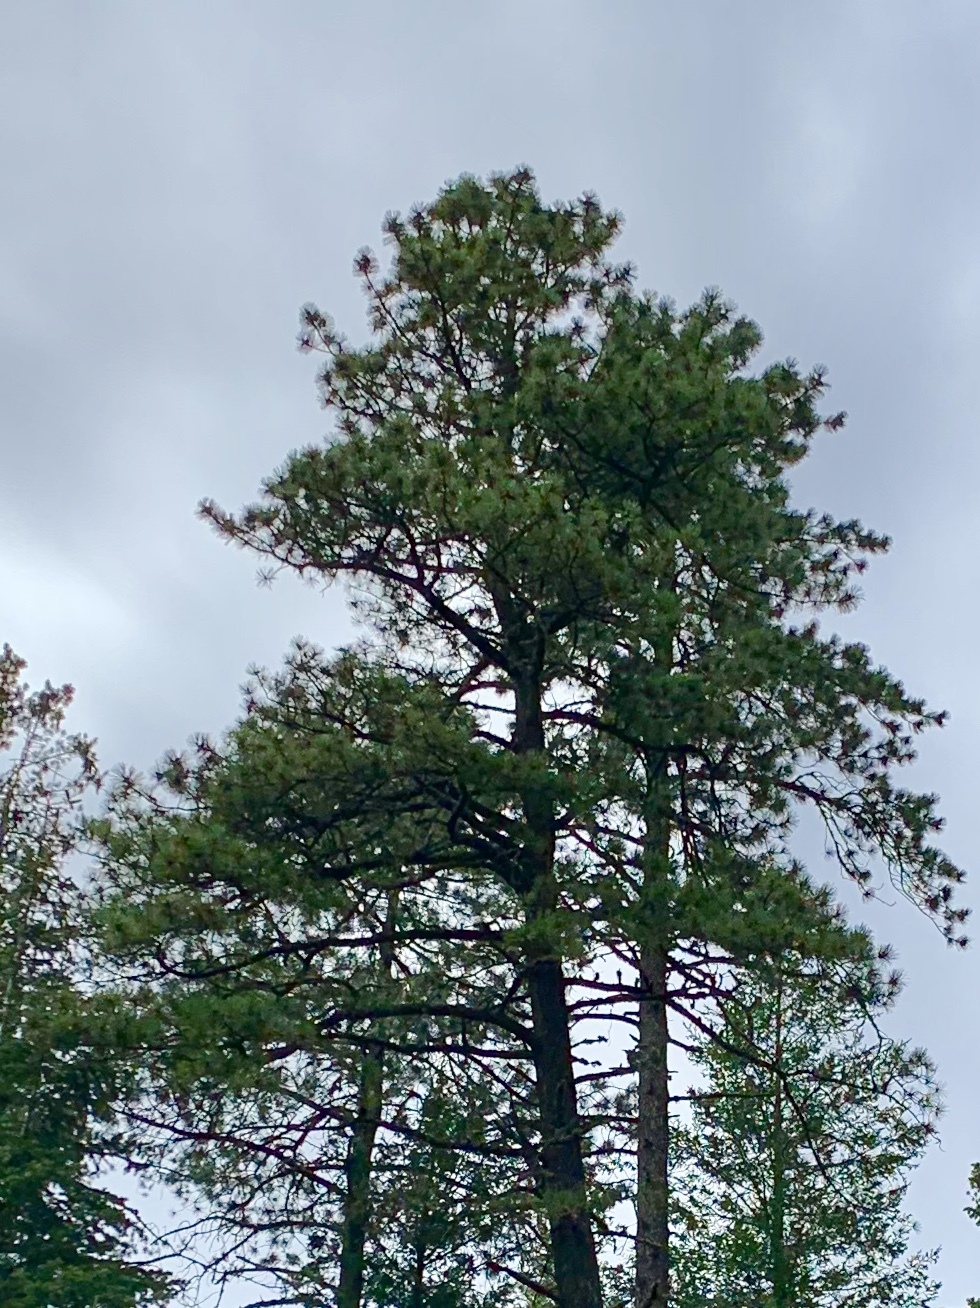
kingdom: Plantae
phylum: Tracheophyta
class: Pinopsida
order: Pinales
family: Pinaceae
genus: Pinus
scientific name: Pinus ponderosa
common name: Western yellow-pine
